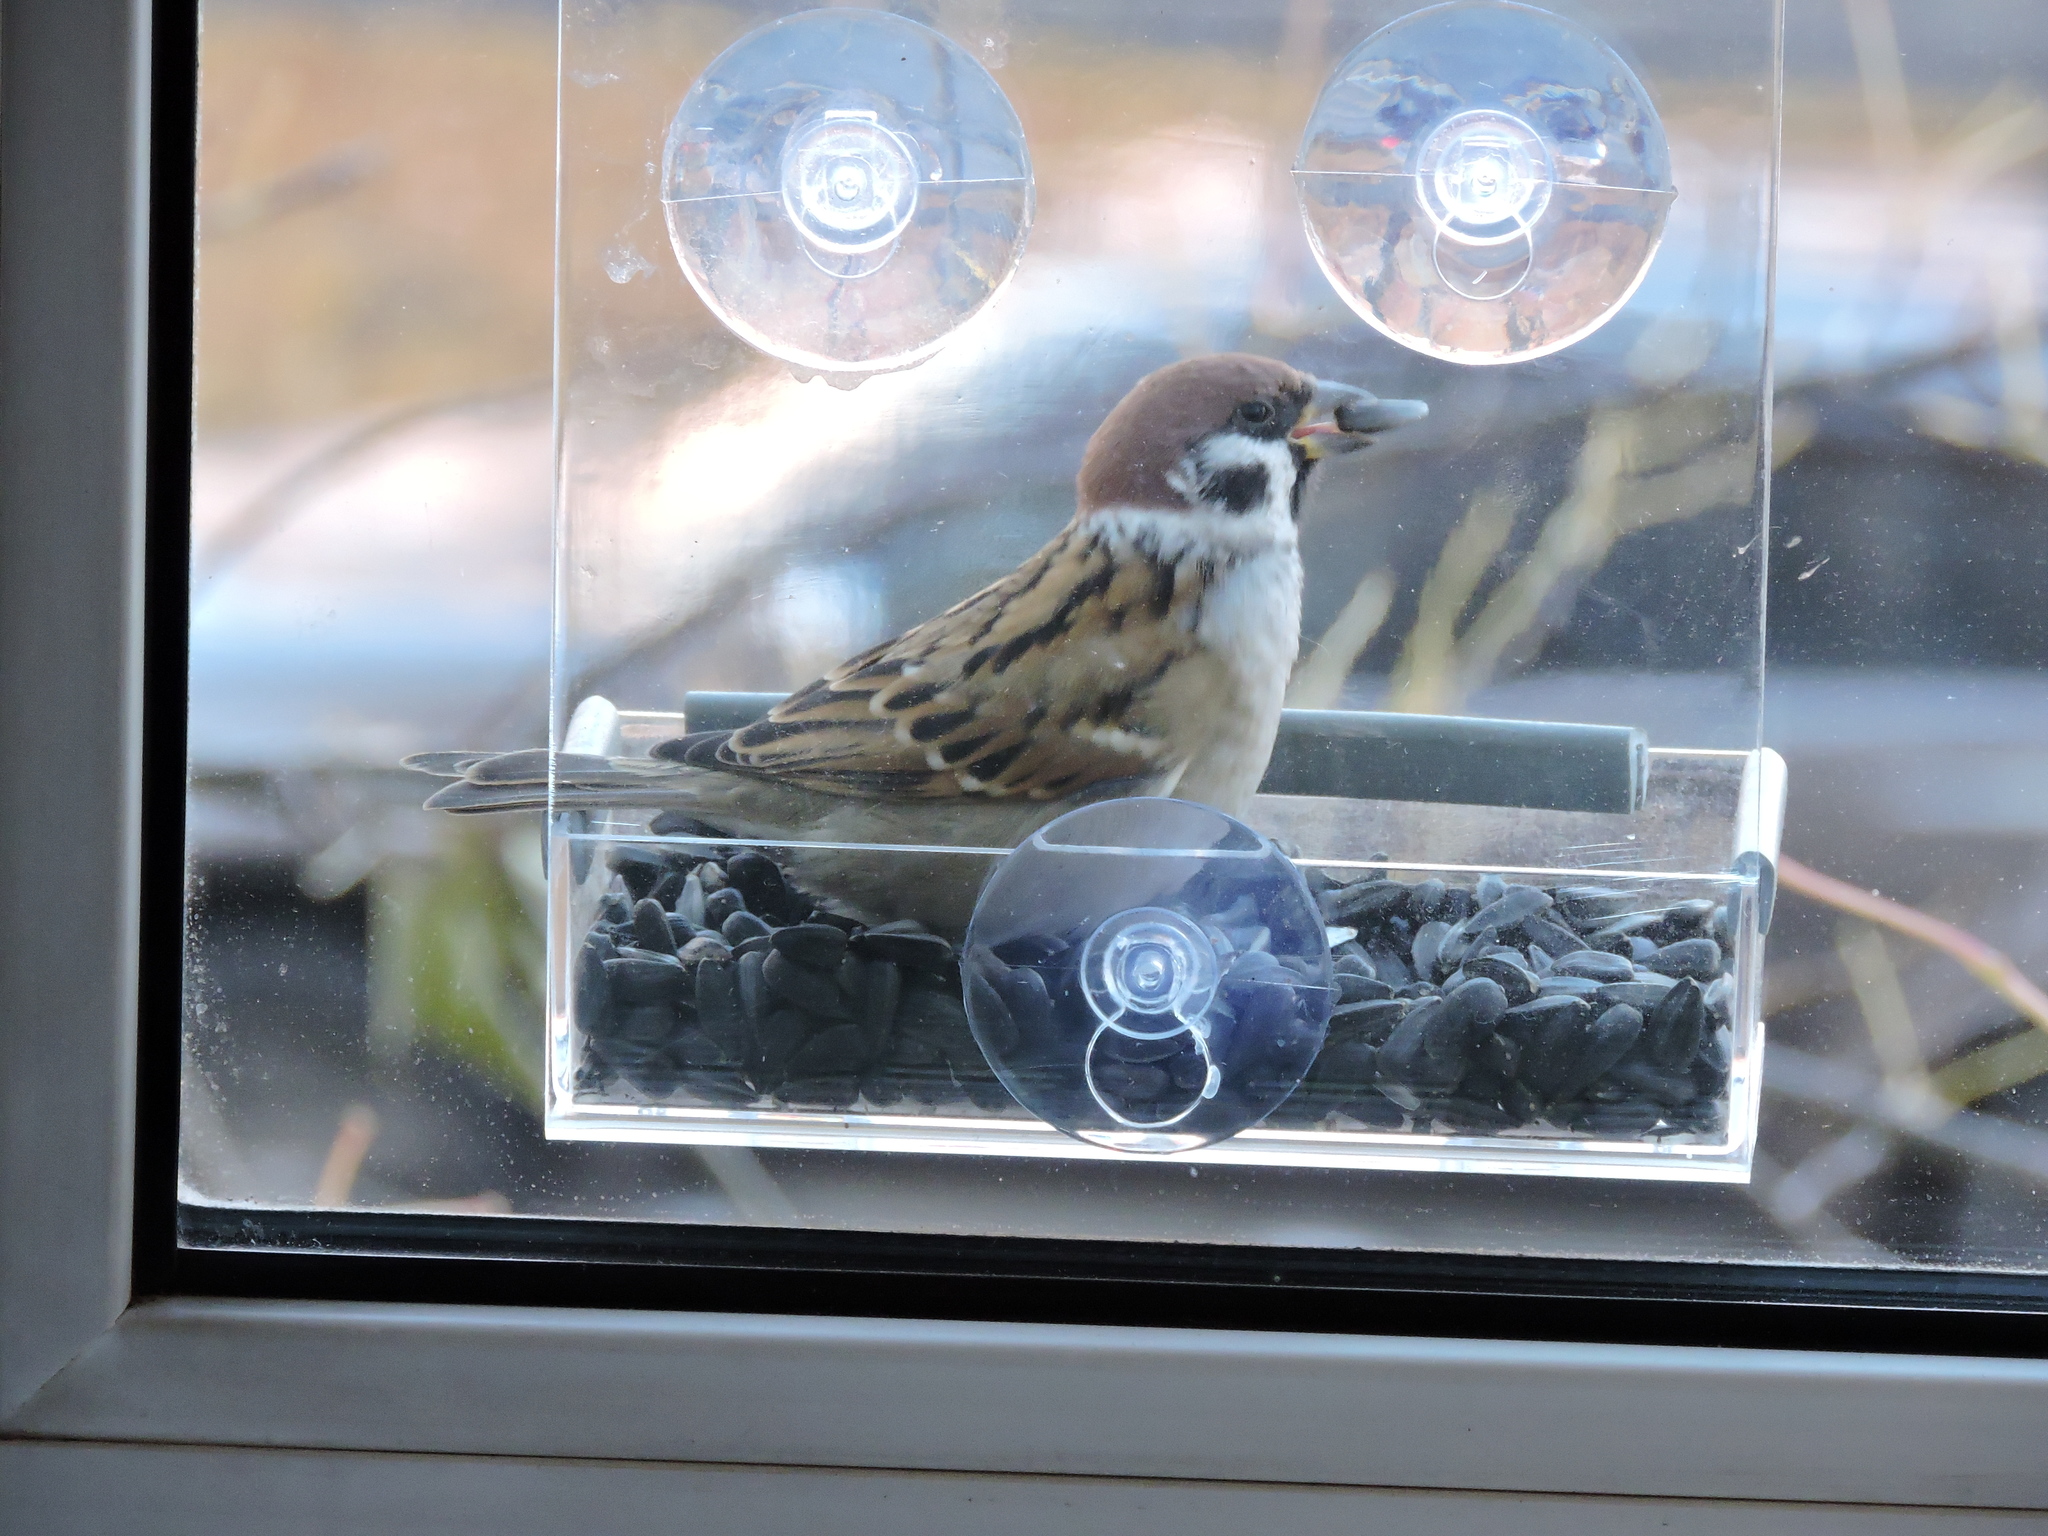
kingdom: Animalia
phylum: Chordata
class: Aves
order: Passeriformes
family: Passeridae
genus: Passer
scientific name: Passer montanus
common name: Eurasian tree sparrow
